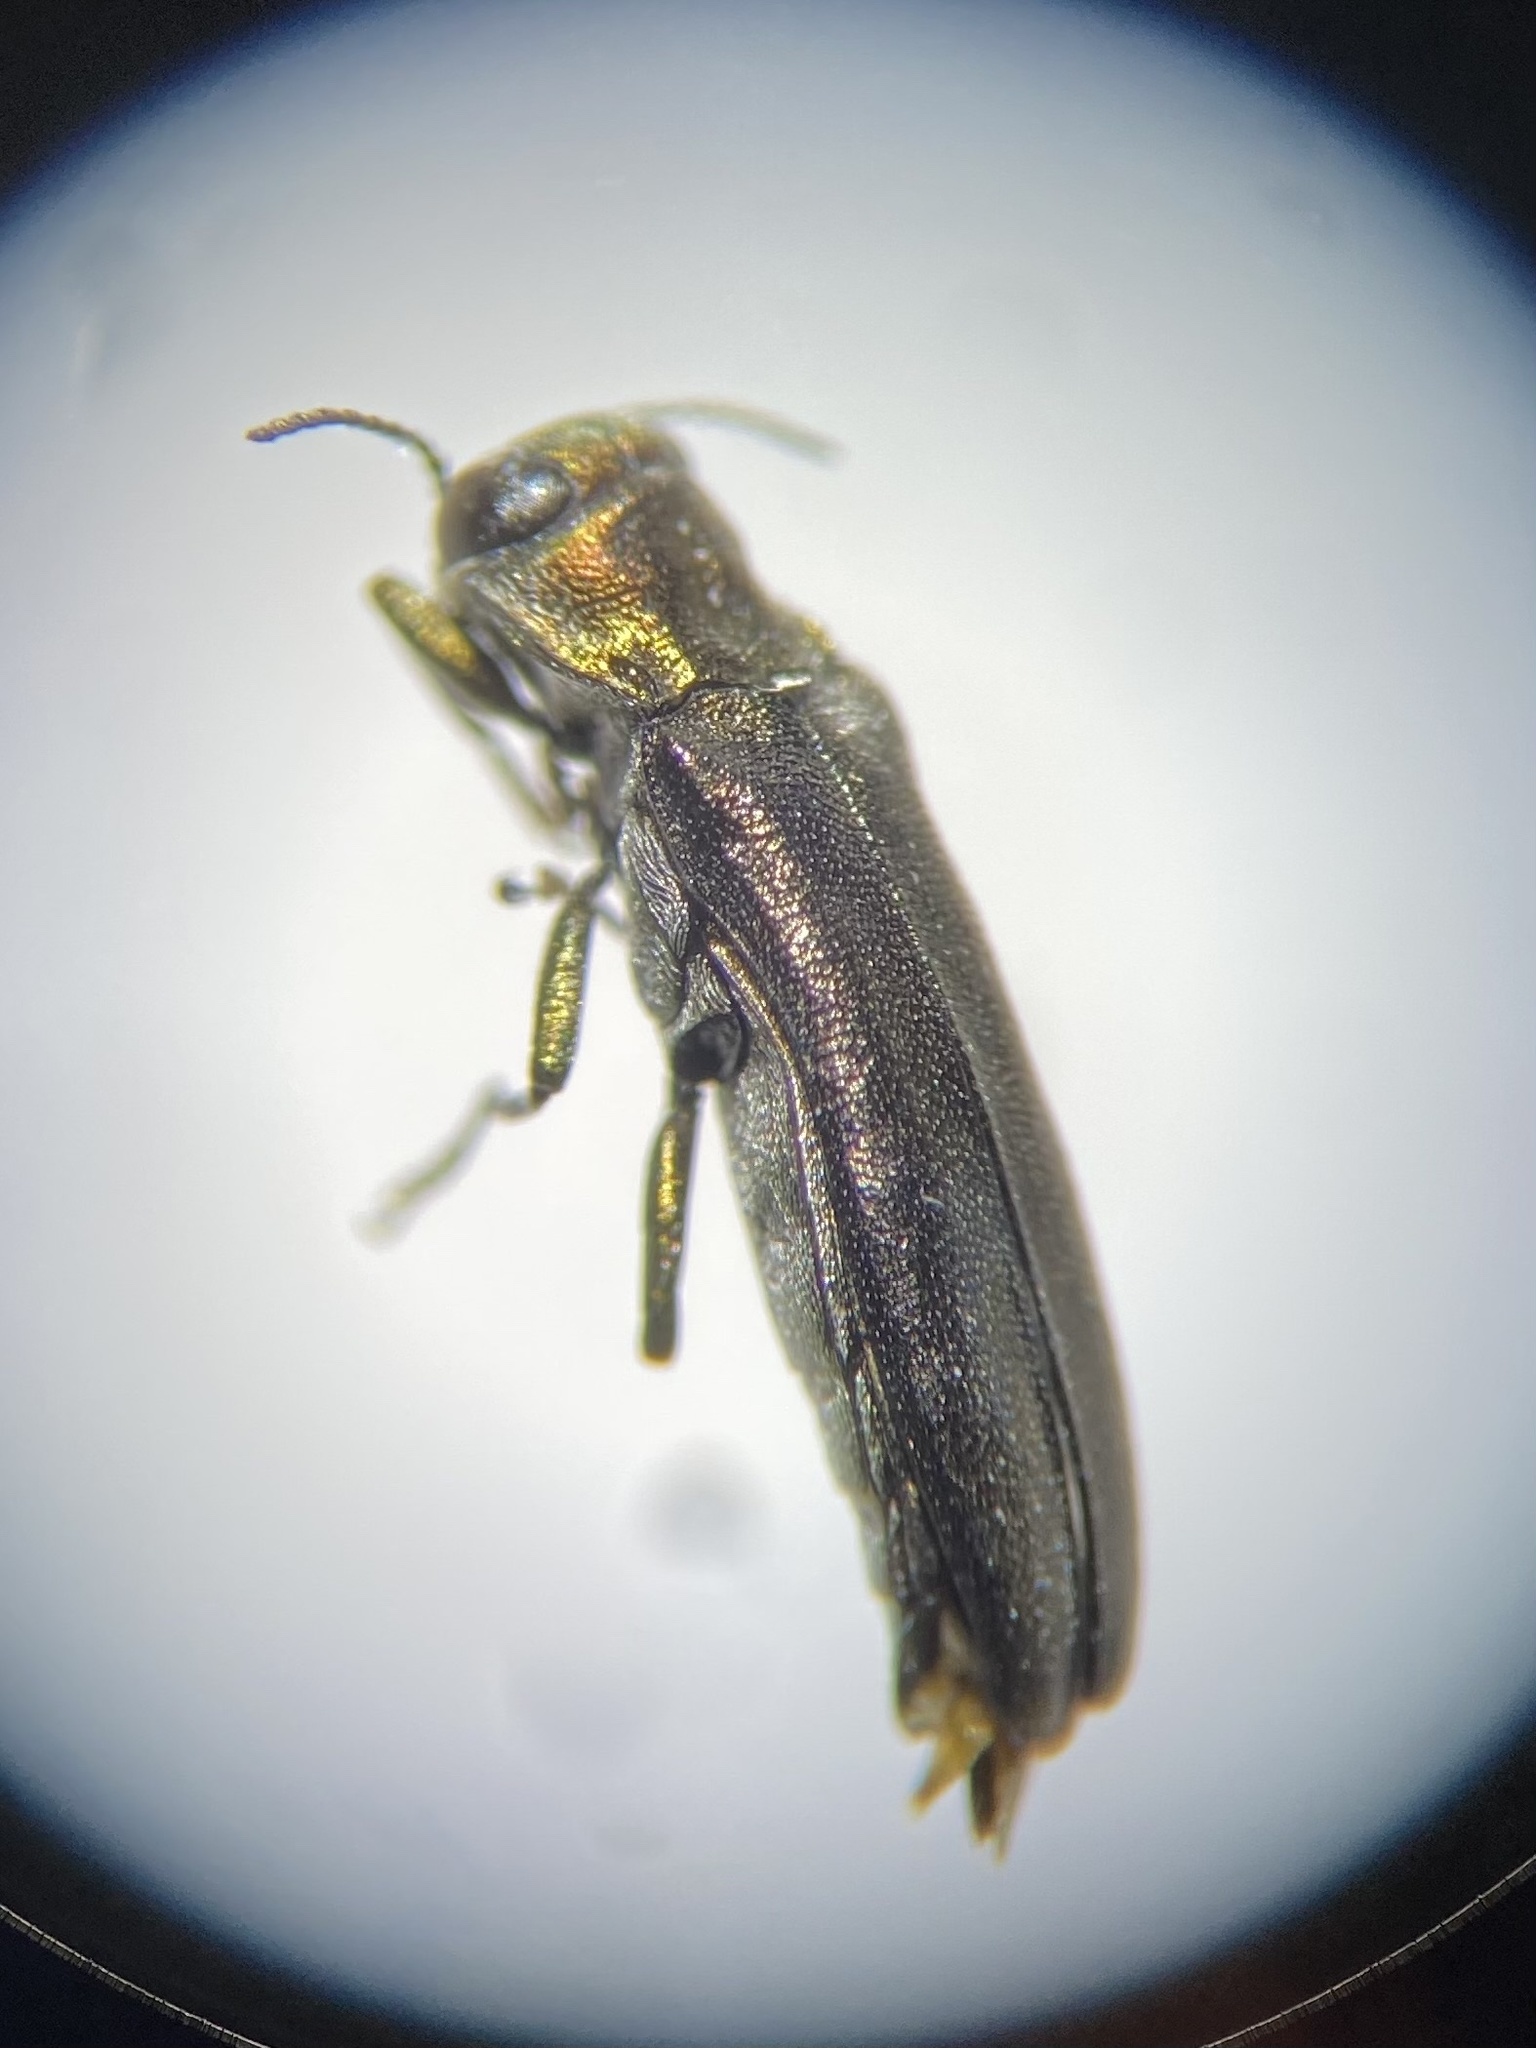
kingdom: Animalia
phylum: Arthropoda
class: Insecta
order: Coleoptera
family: Buprestidae
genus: Agrilus
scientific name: Agrilus masculinus
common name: Maple agrilus
